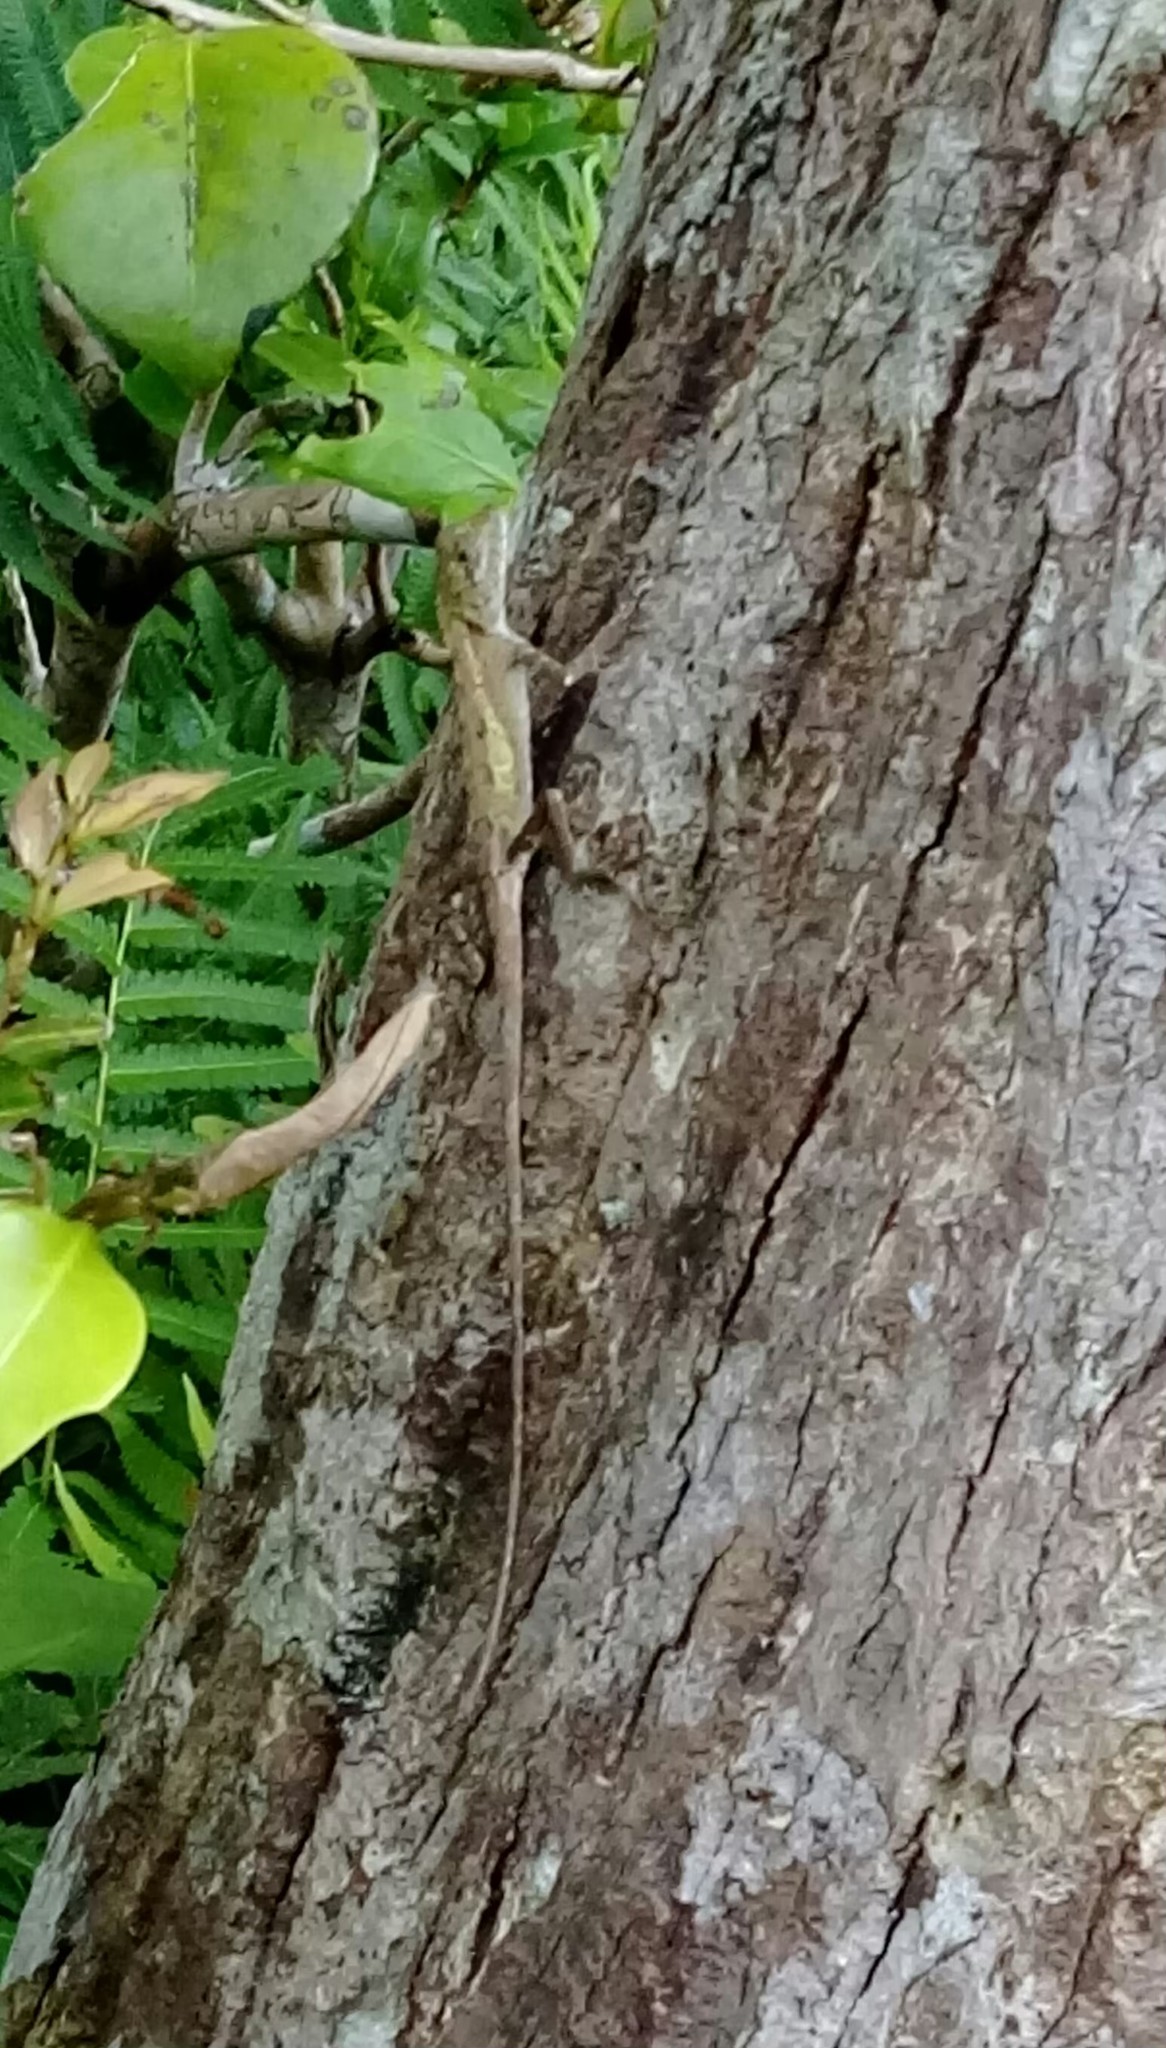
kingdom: Fungi
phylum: Basidiomycota
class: Agaricomycetes
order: Boletales
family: Diplocystidiaceae
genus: Diploderma
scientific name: Diploderma polygonatum
